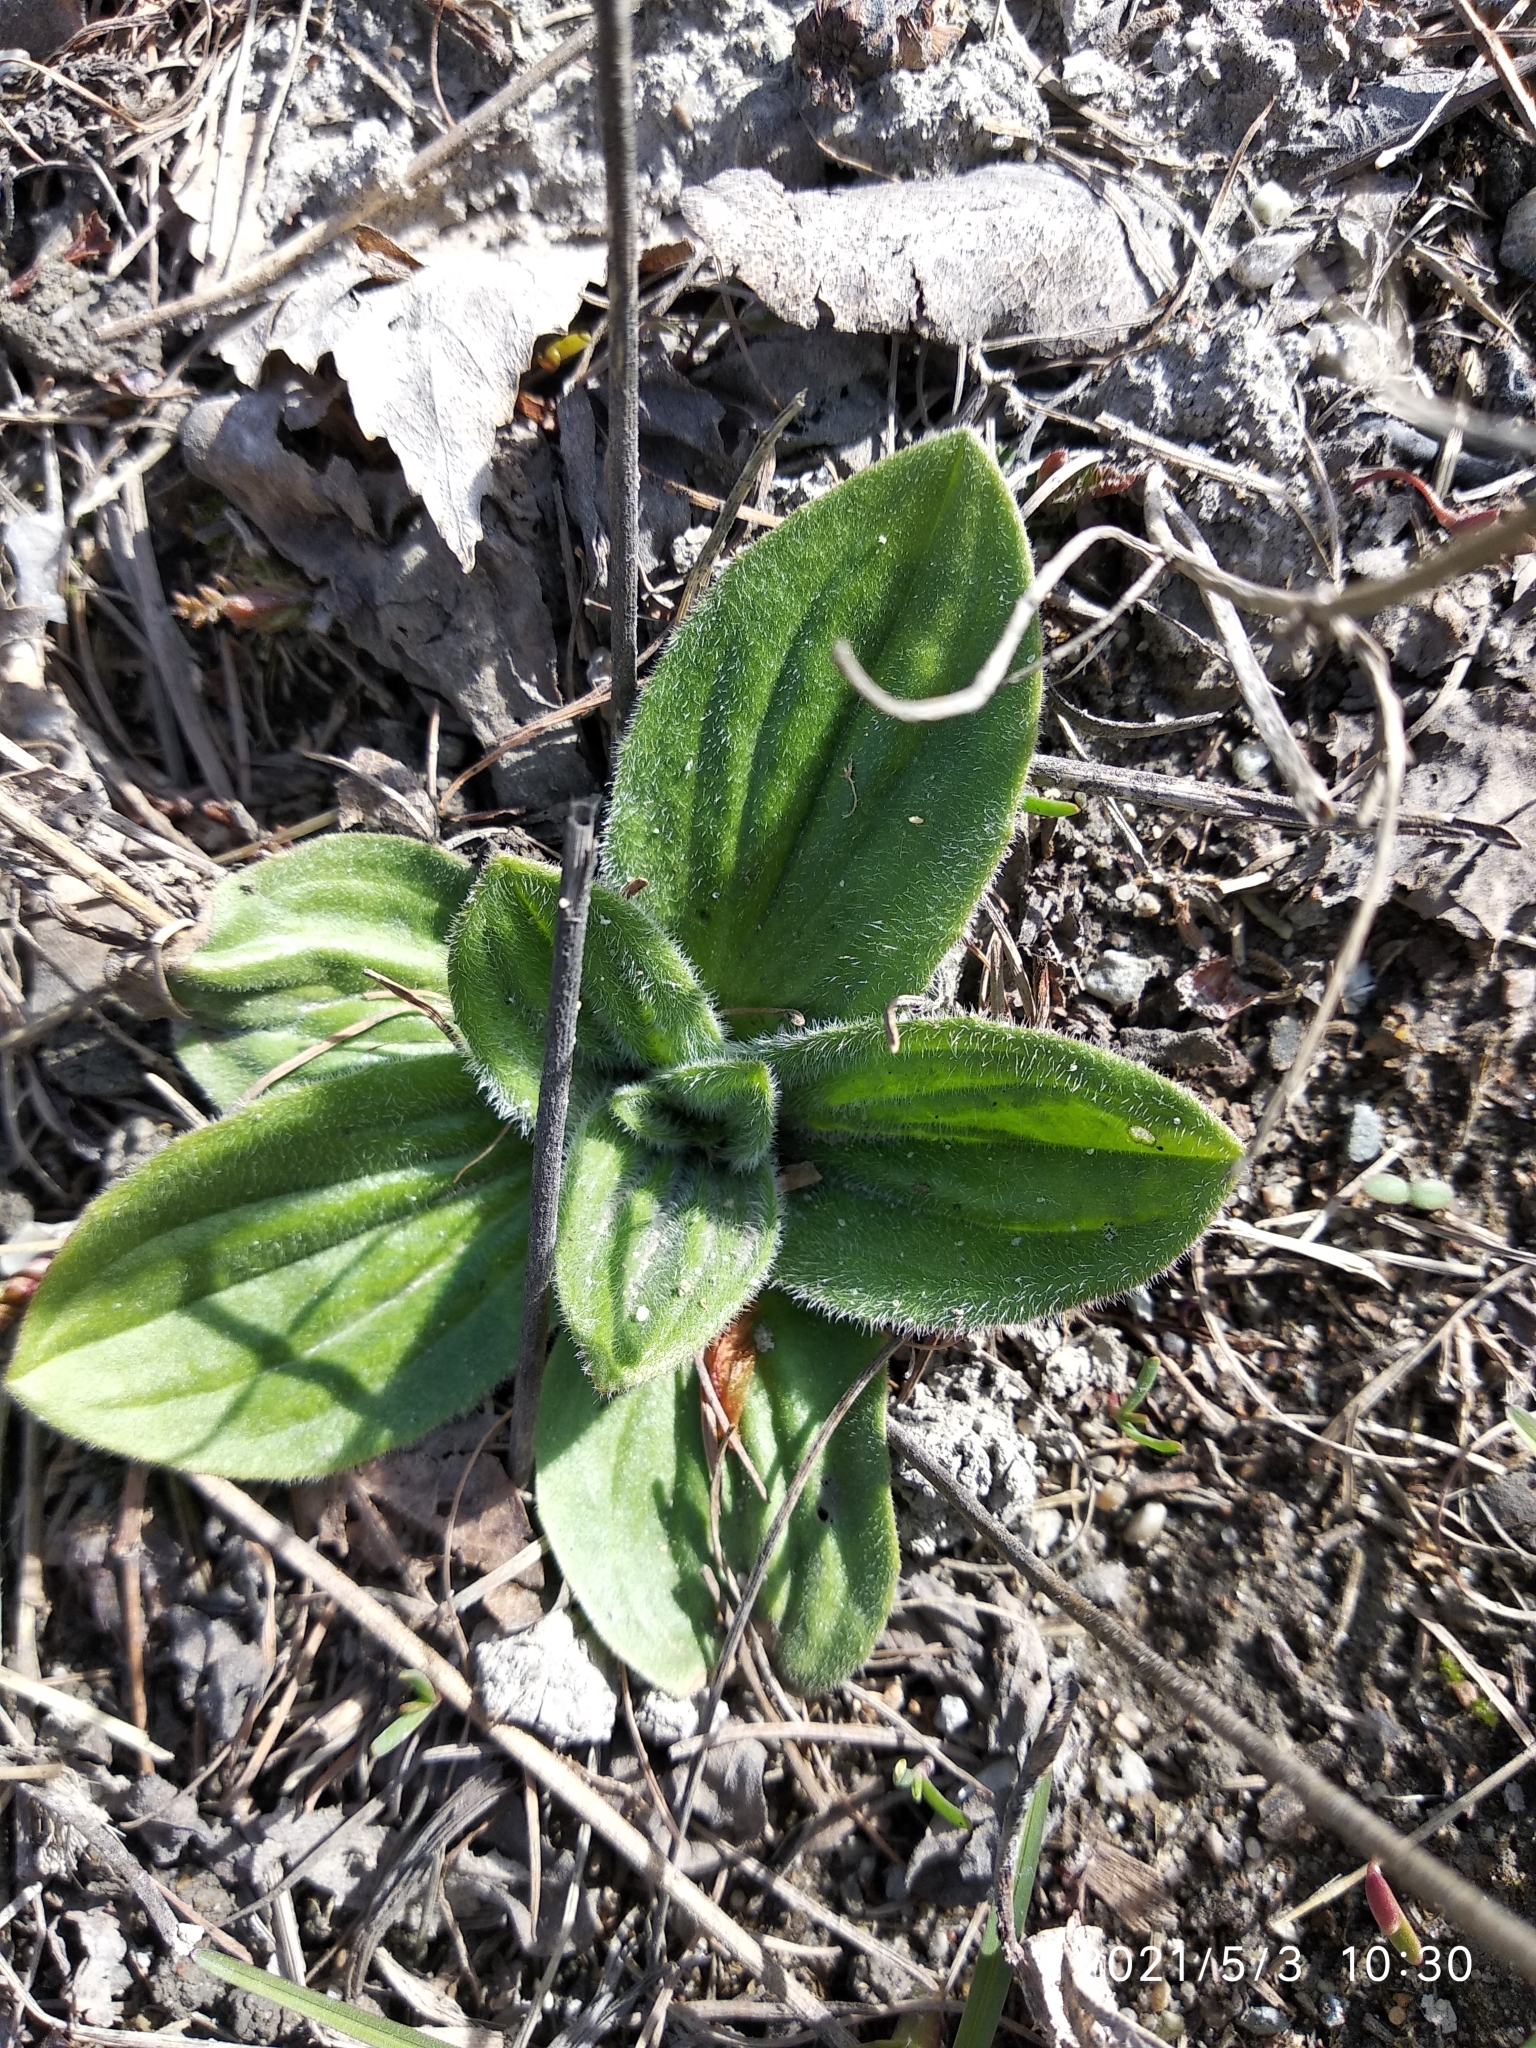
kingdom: Plantae
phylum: Tracheophyta
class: Magnoliopsida
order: Lamiales
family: Plantaginaceae
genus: Plantago
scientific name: Plantago media
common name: Hoary plantain
